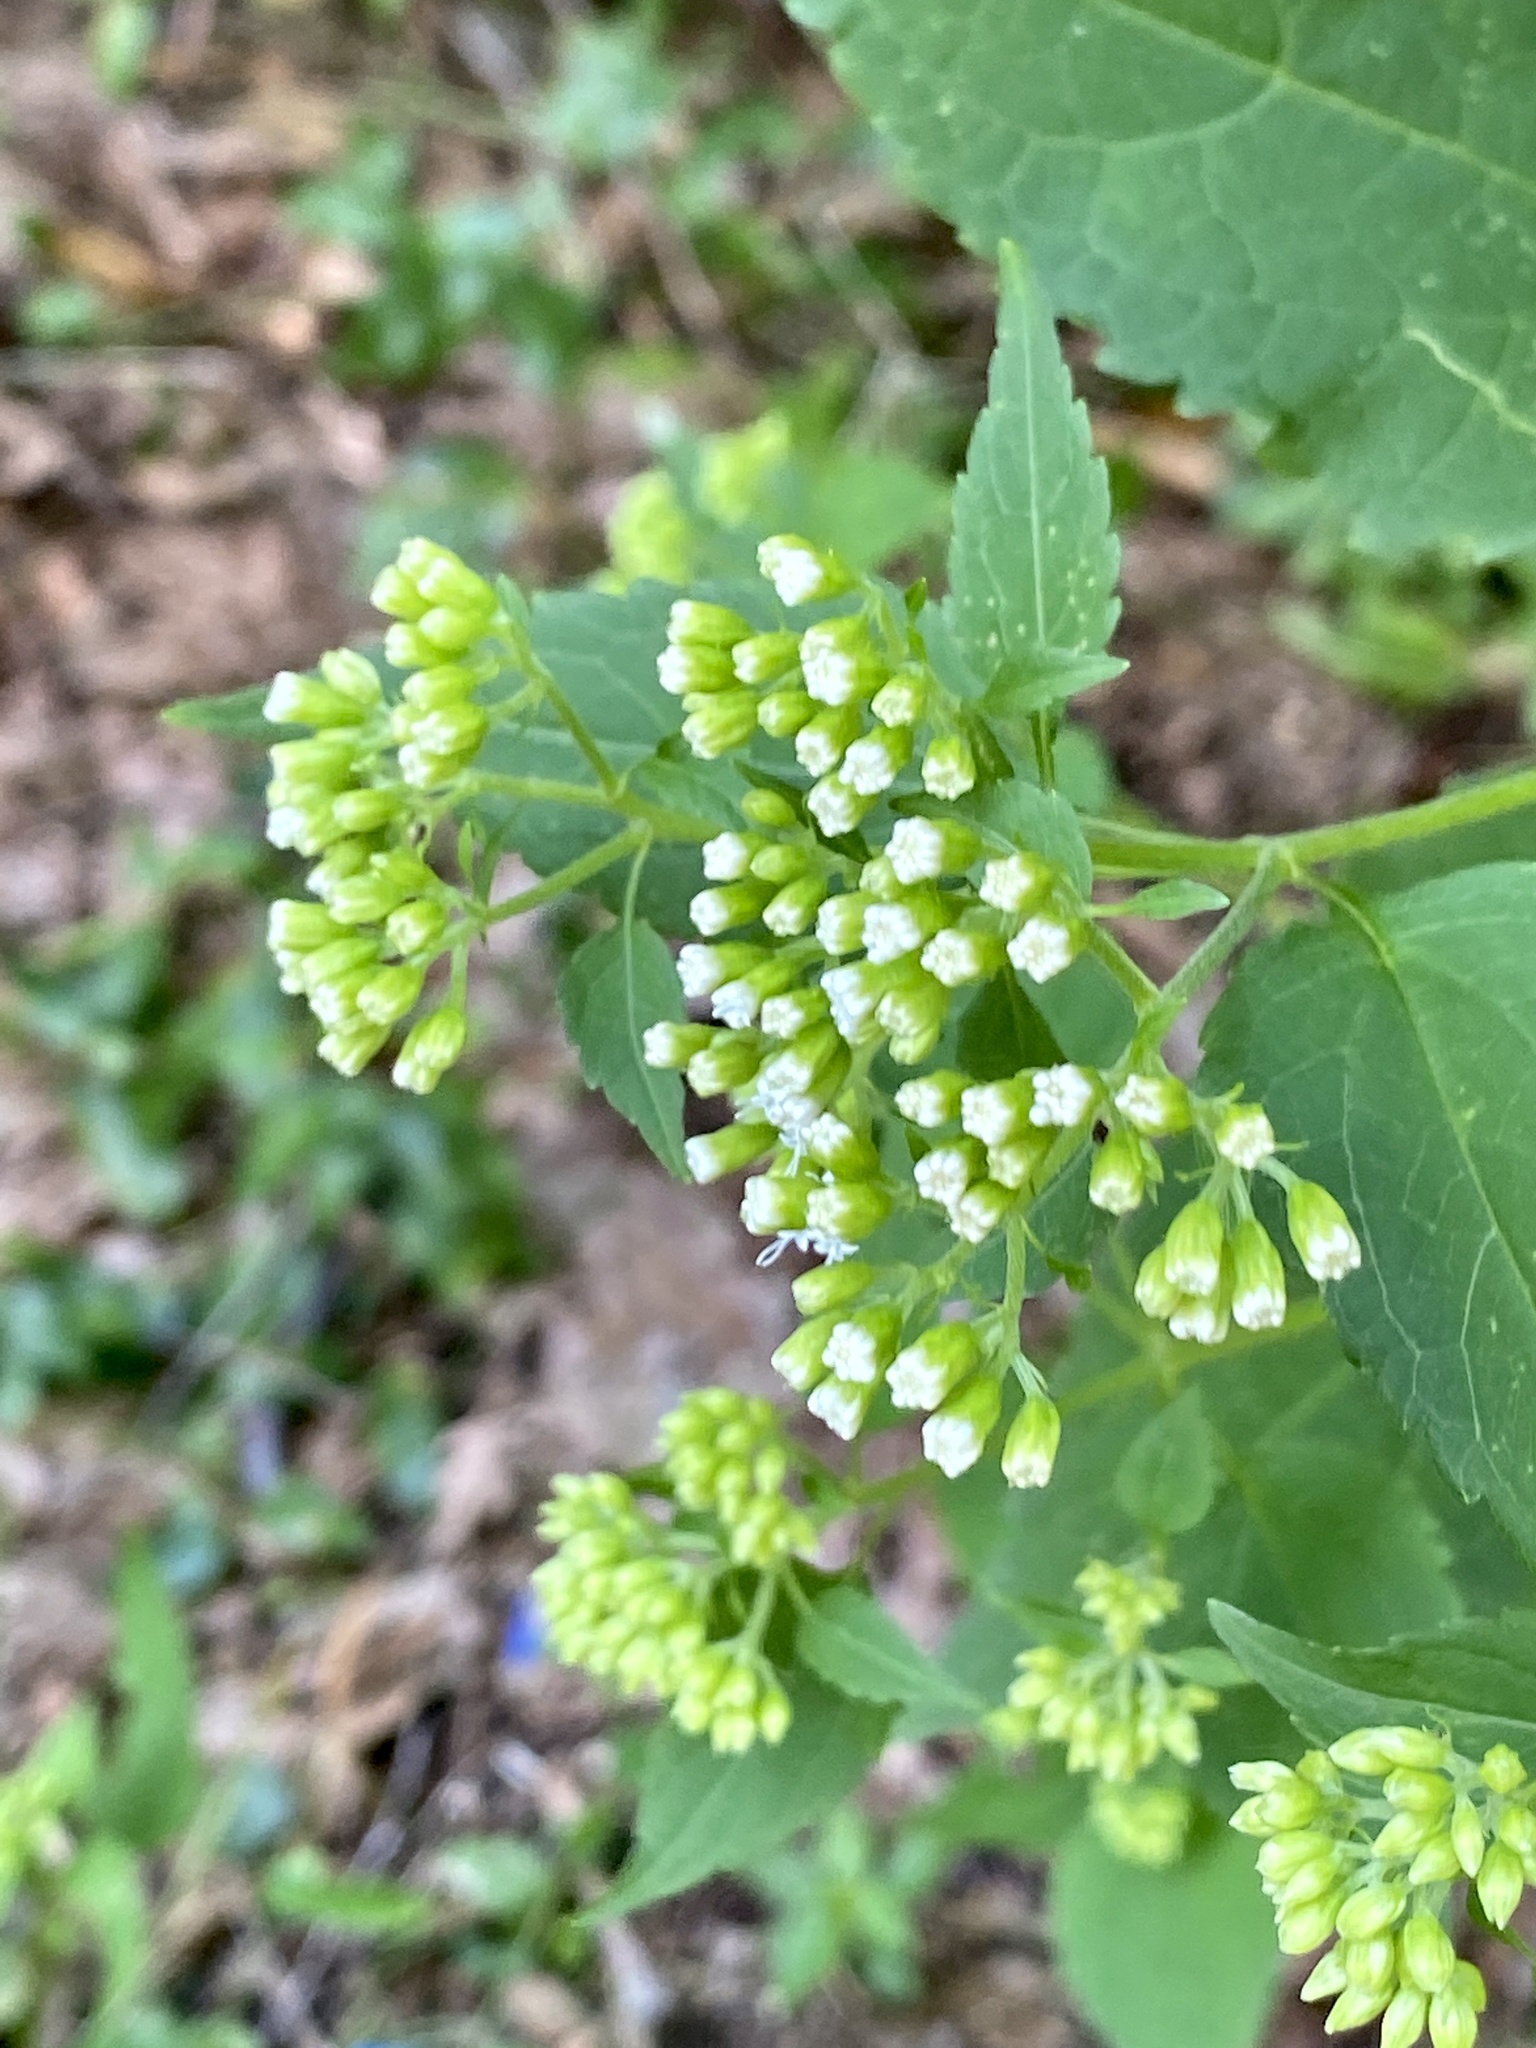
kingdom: Plantae
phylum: Tracheophyta
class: Magnoliopsida
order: Asterales
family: Asteraceae
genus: Ageratina
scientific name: Ageratina altissima
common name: White snakeroot
